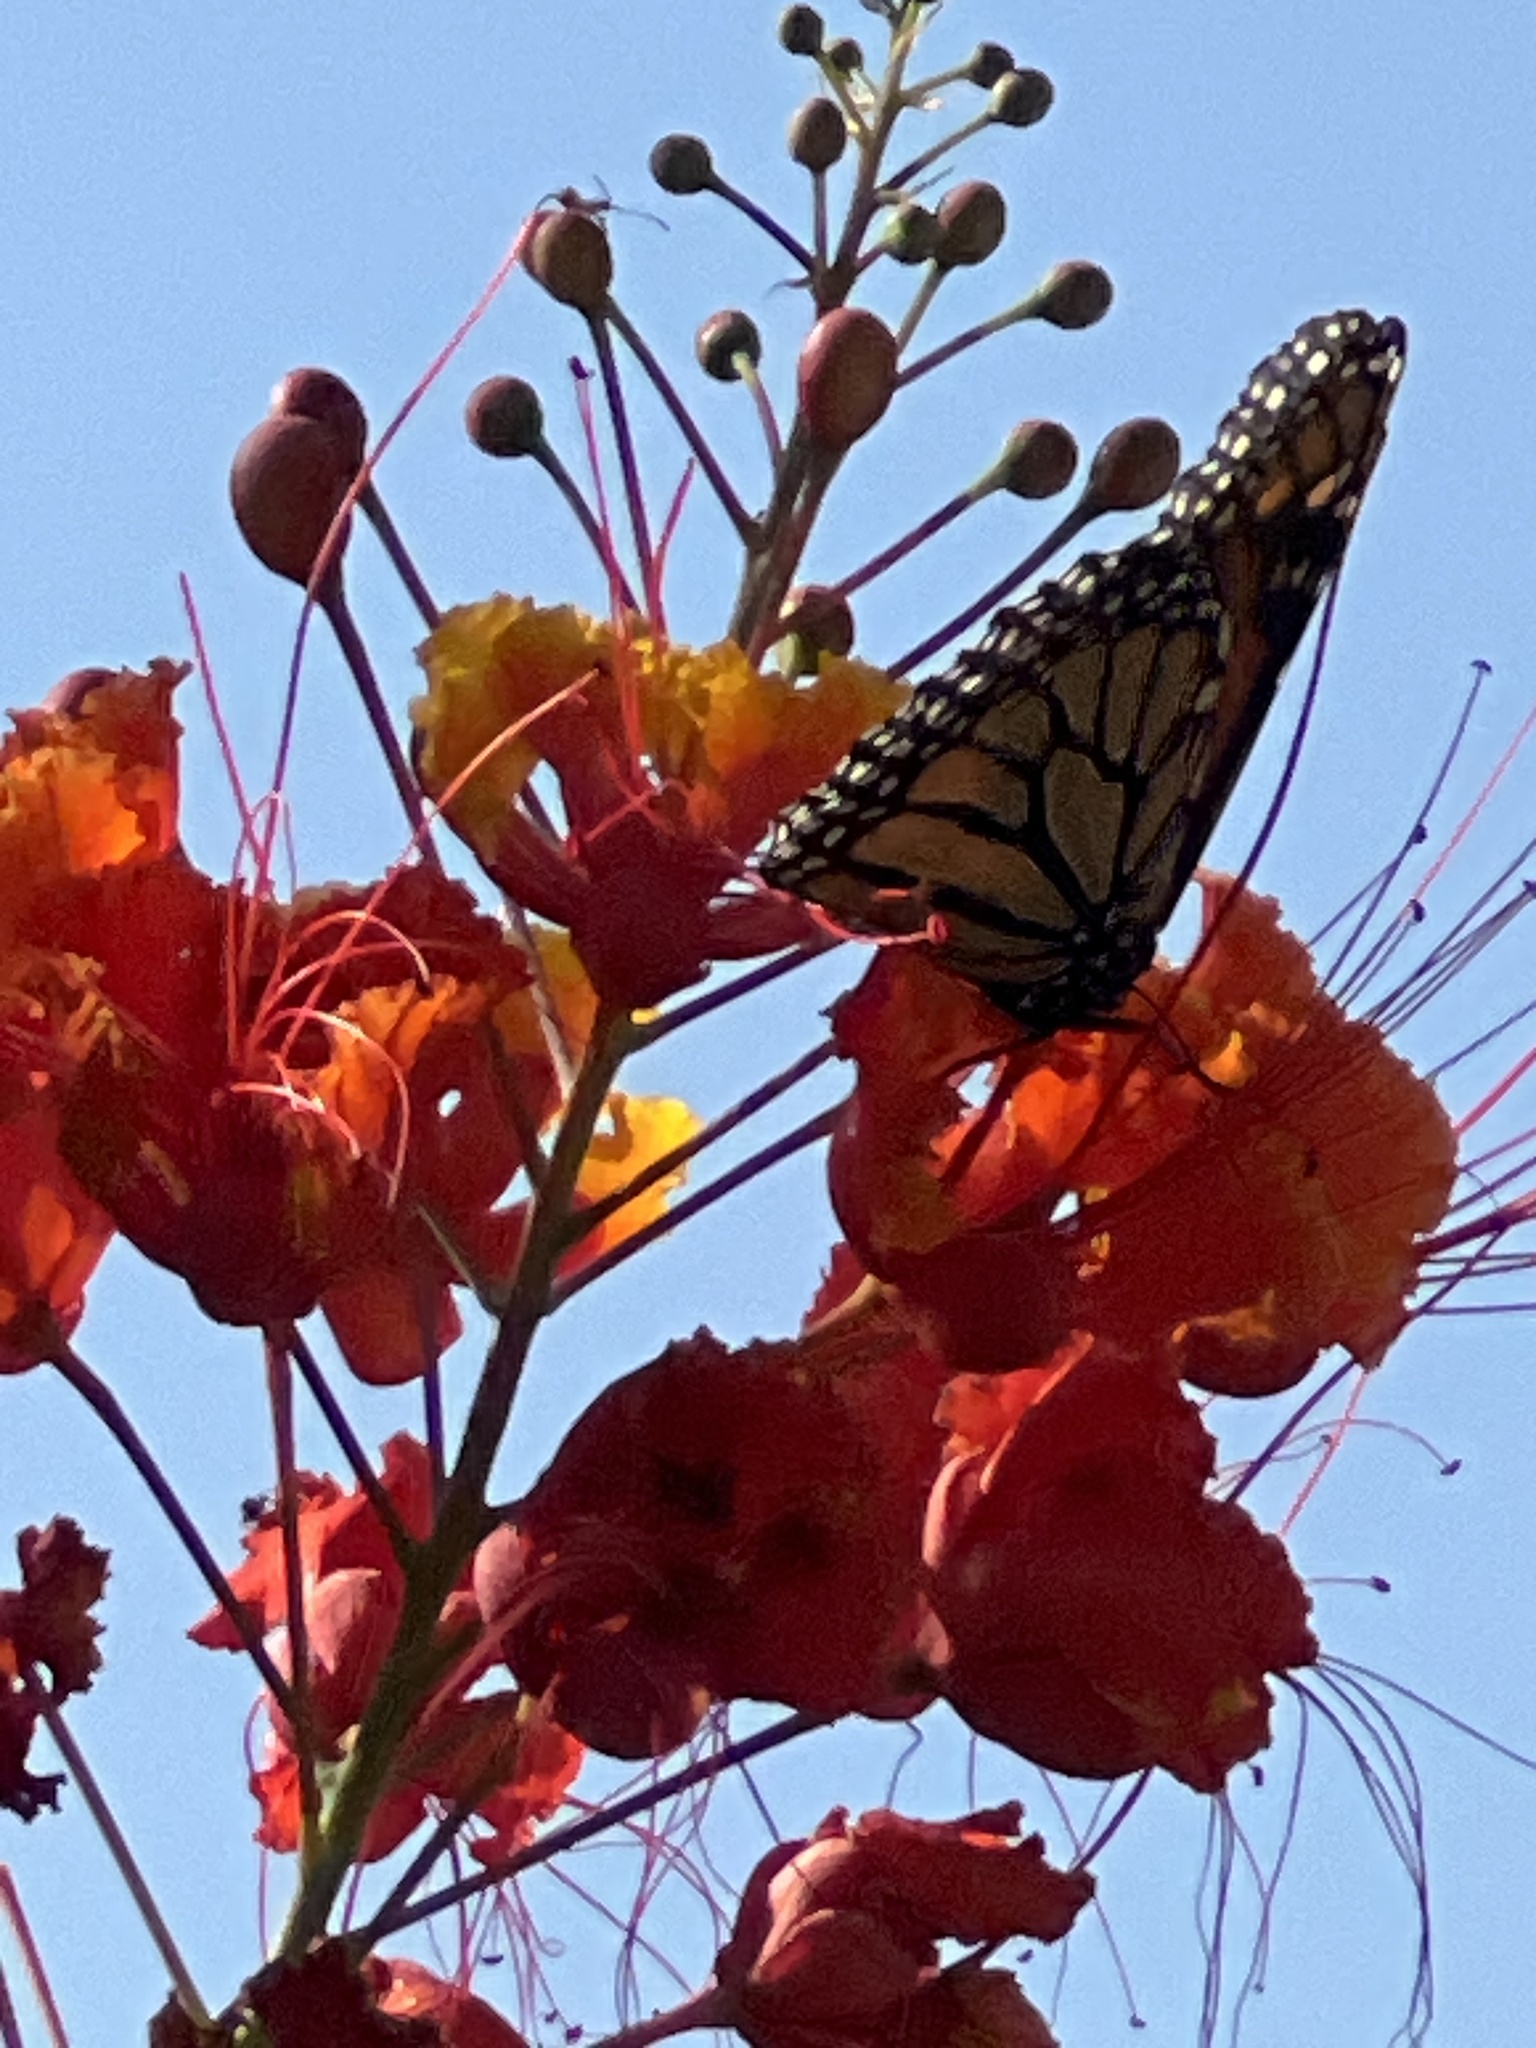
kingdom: Animalia
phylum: Arthropoda
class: Insecta
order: Lepidoptera
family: Nymphalidae
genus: Danaus
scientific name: Danaus plexippus
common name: Monarch
